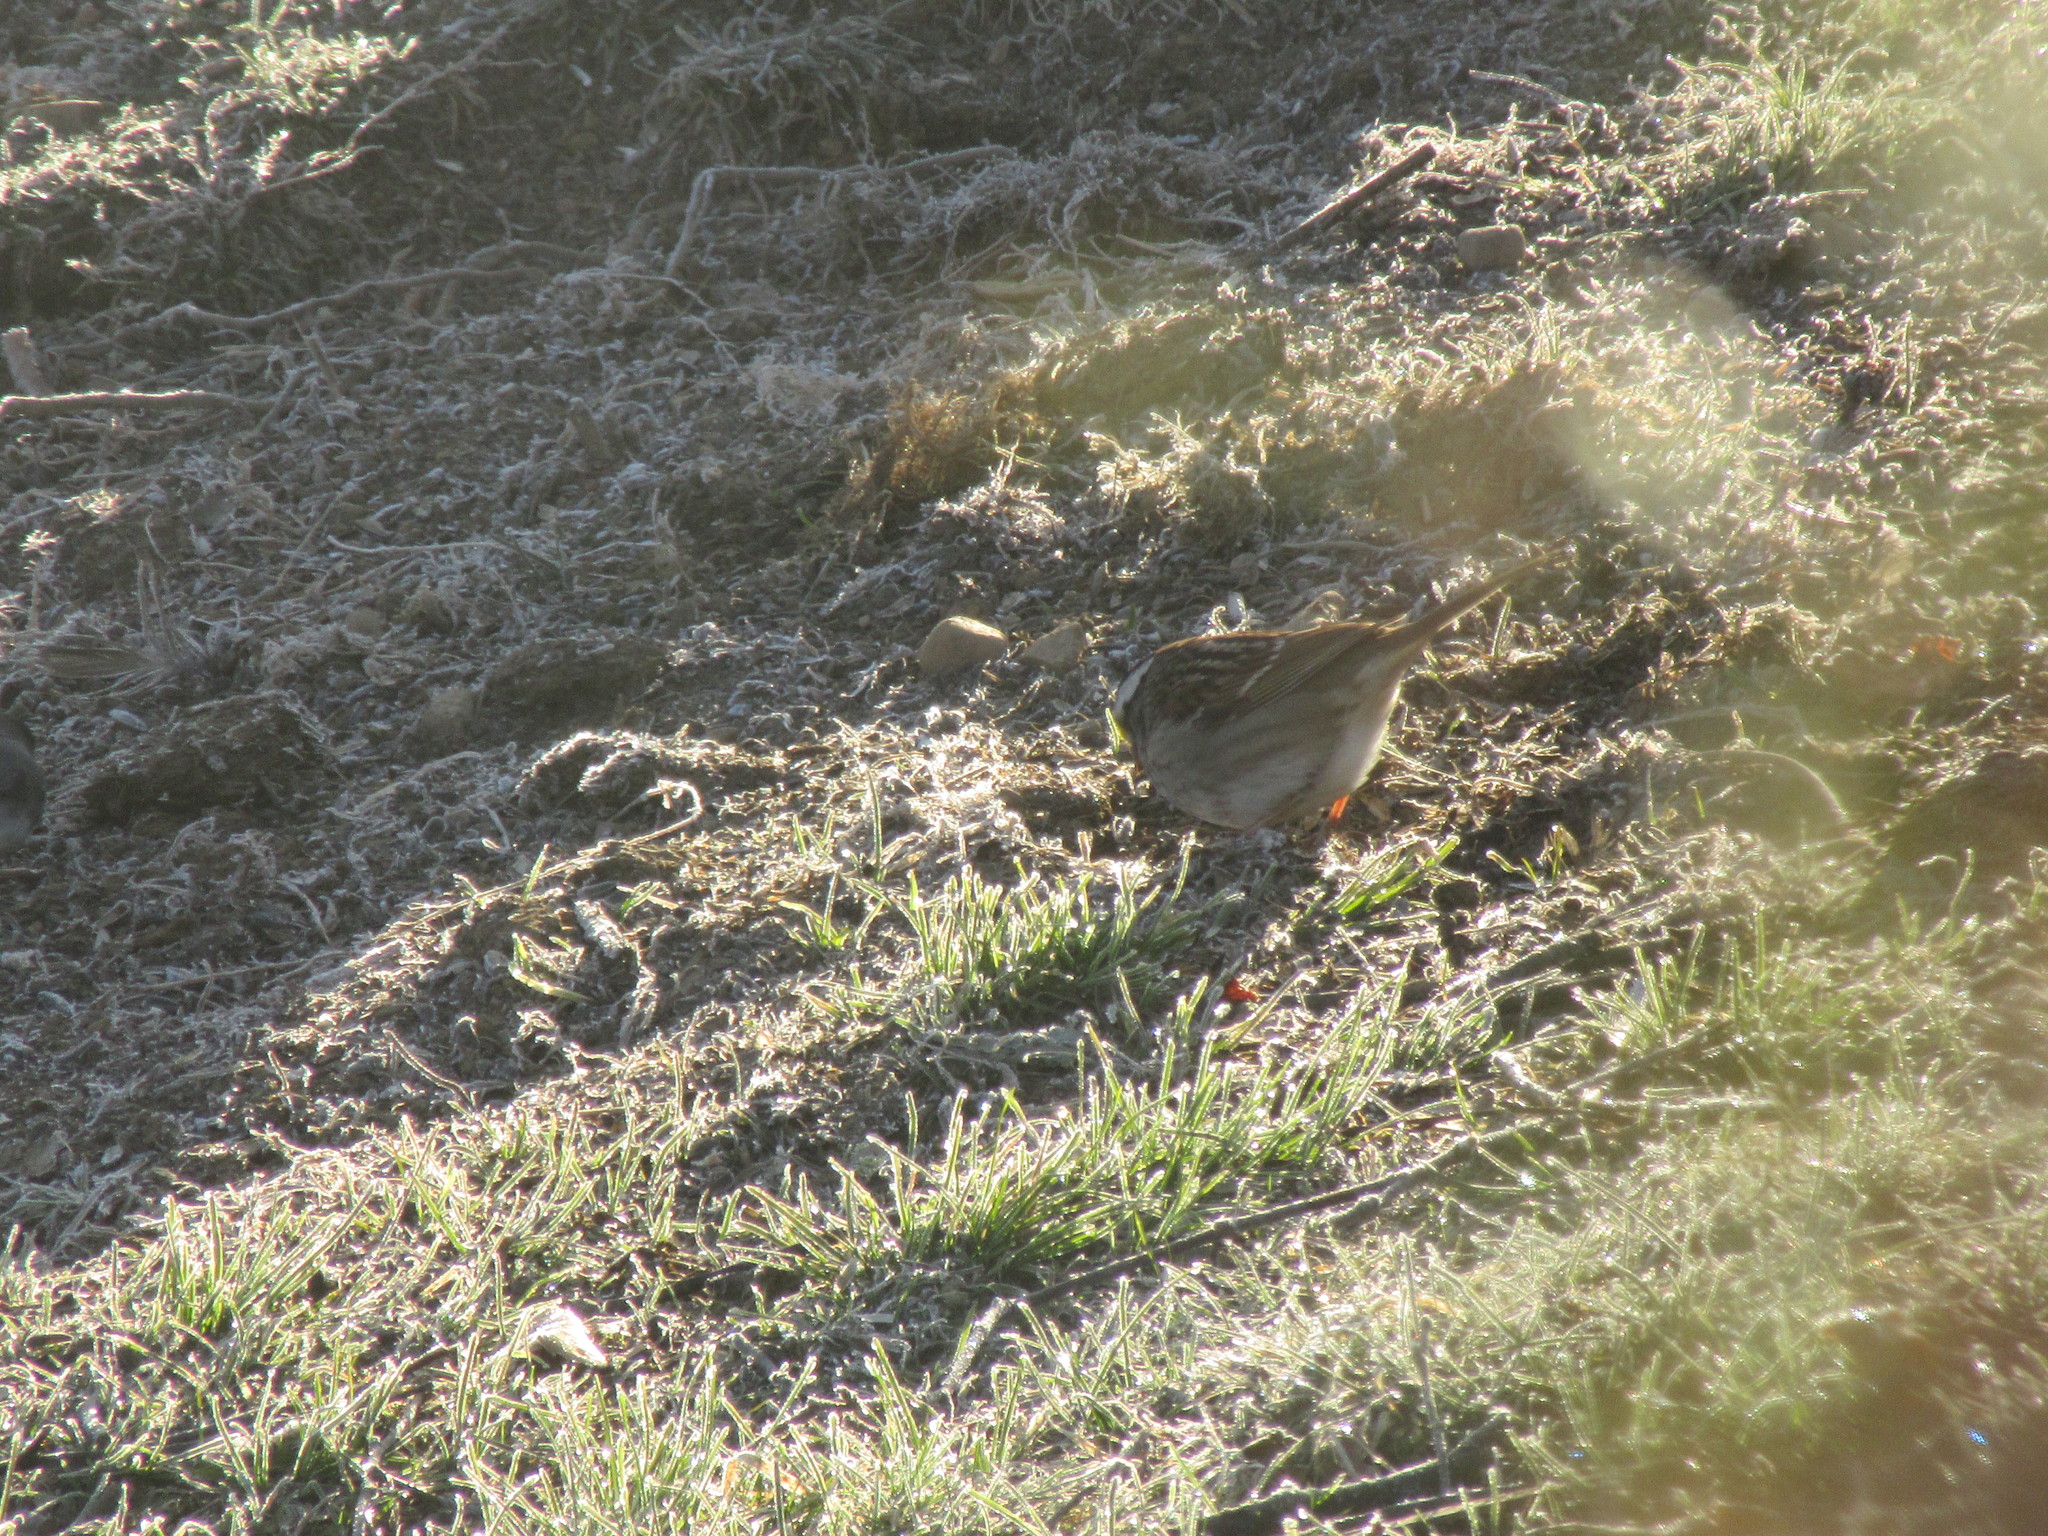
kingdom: Animalia
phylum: Chordata
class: Aves
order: Passeriformes
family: Passerellidae
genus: Zonotrichia
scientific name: Zonotrichia albicollis
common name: White-throated sparrow
